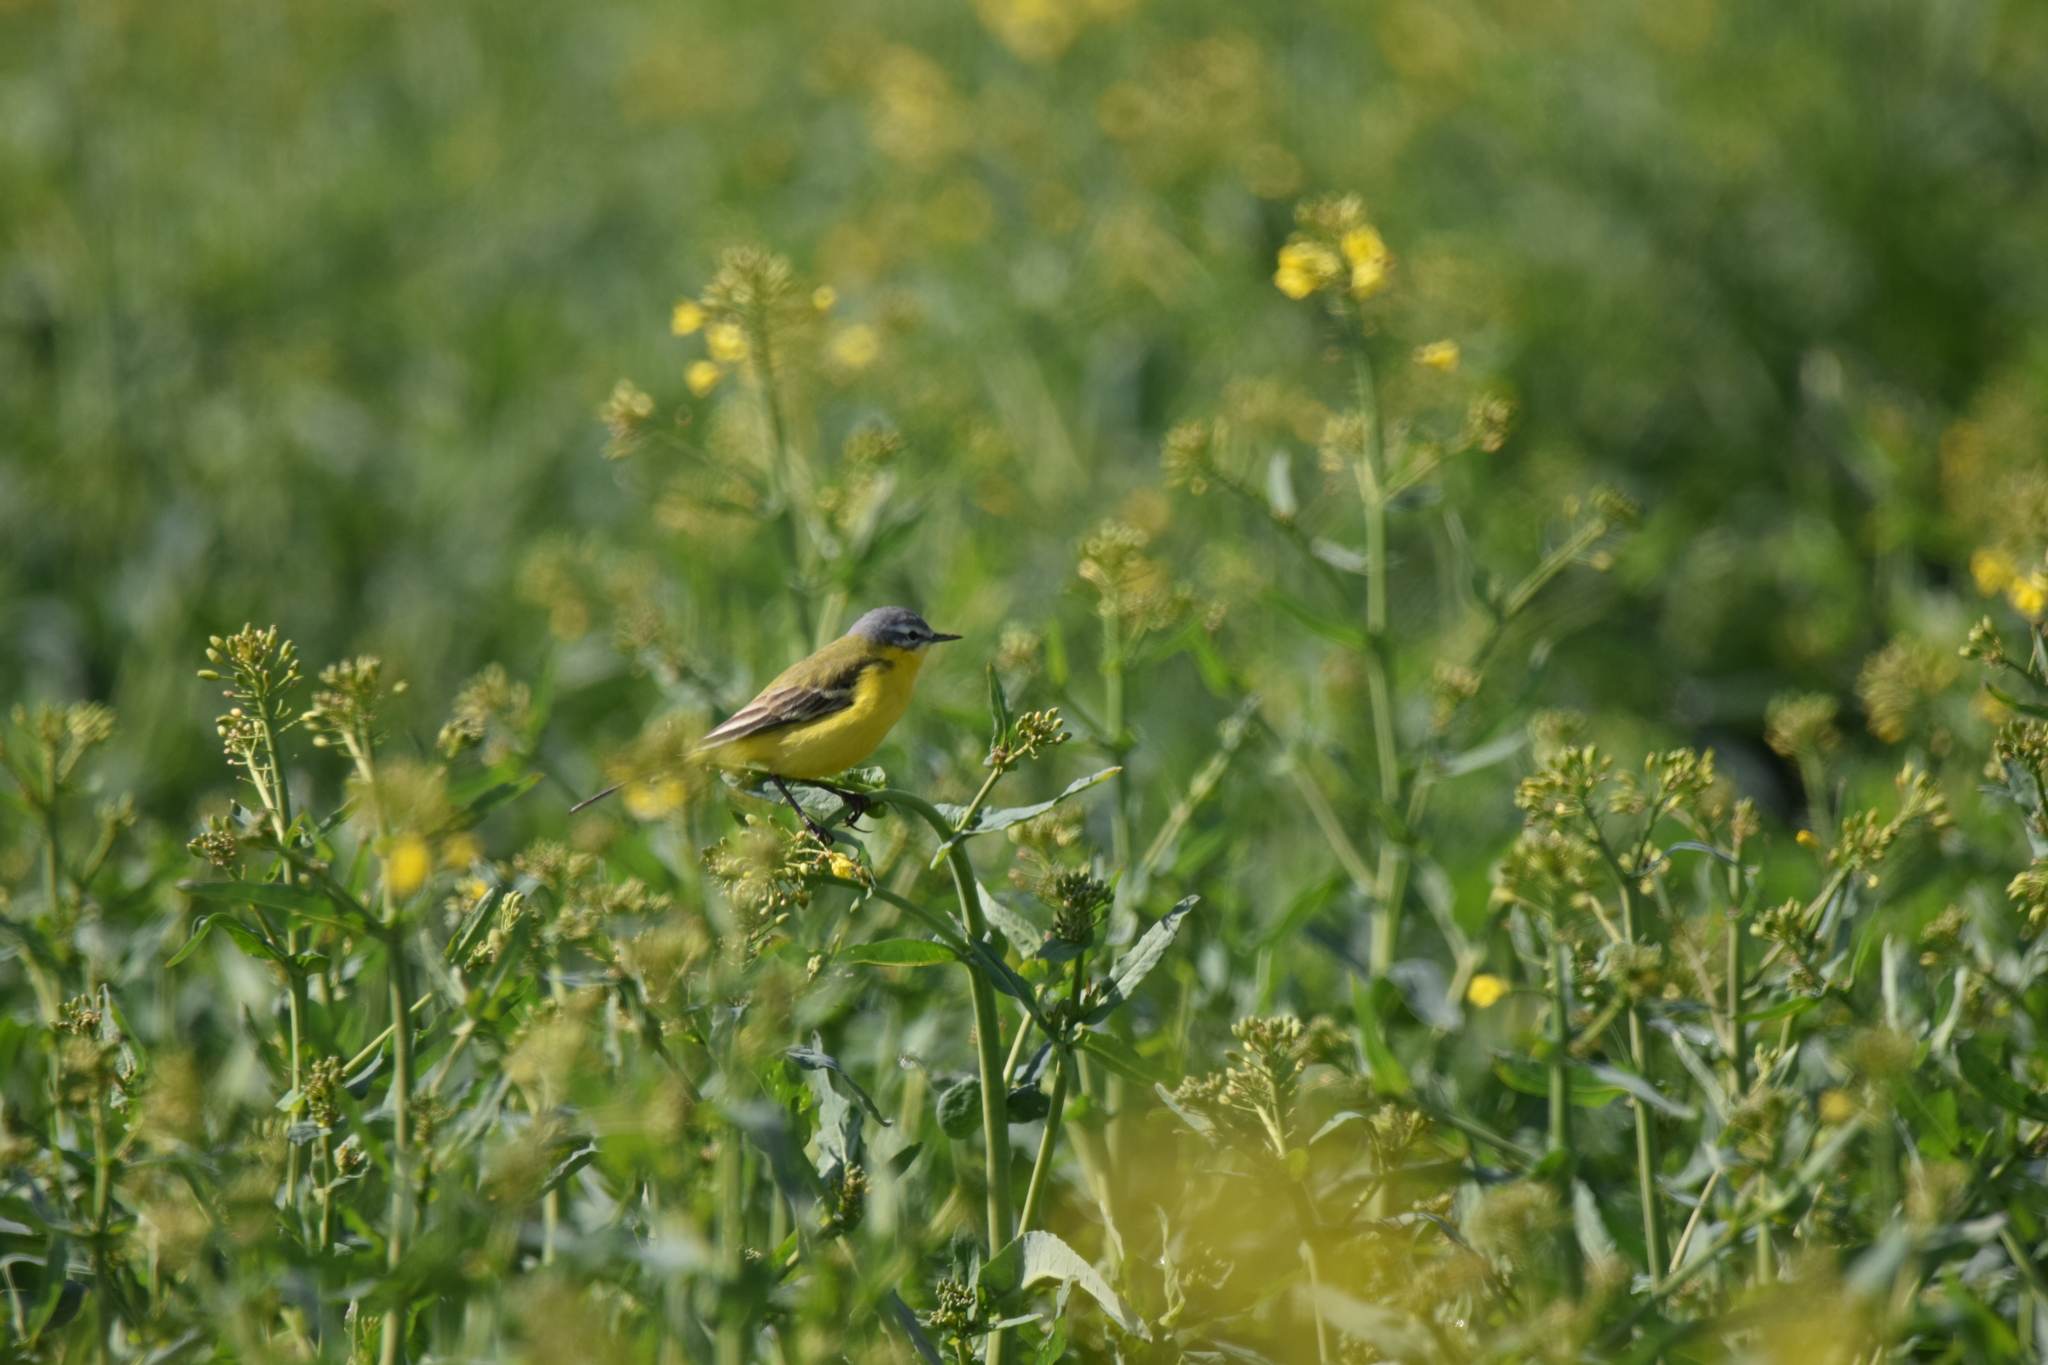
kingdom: Animalia
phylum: Chordata
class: Aves
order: Passeriformes
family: Motacillidae
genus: Motacilla
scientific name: Motacilla flava
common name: Western yellow wagtail
